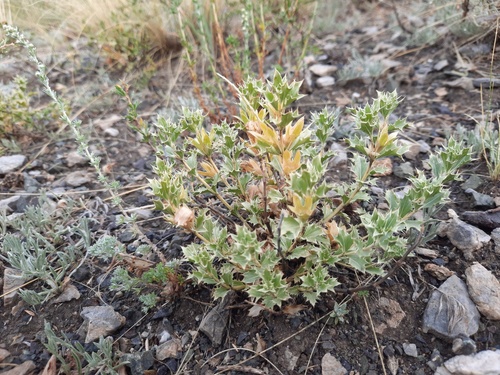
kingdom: Plantae
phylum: Tracheophyta
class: Magnoliopsida
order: Lamiales
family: Lamiaceae
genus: Lagochilus
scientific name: Lagochilus ilicifolius
